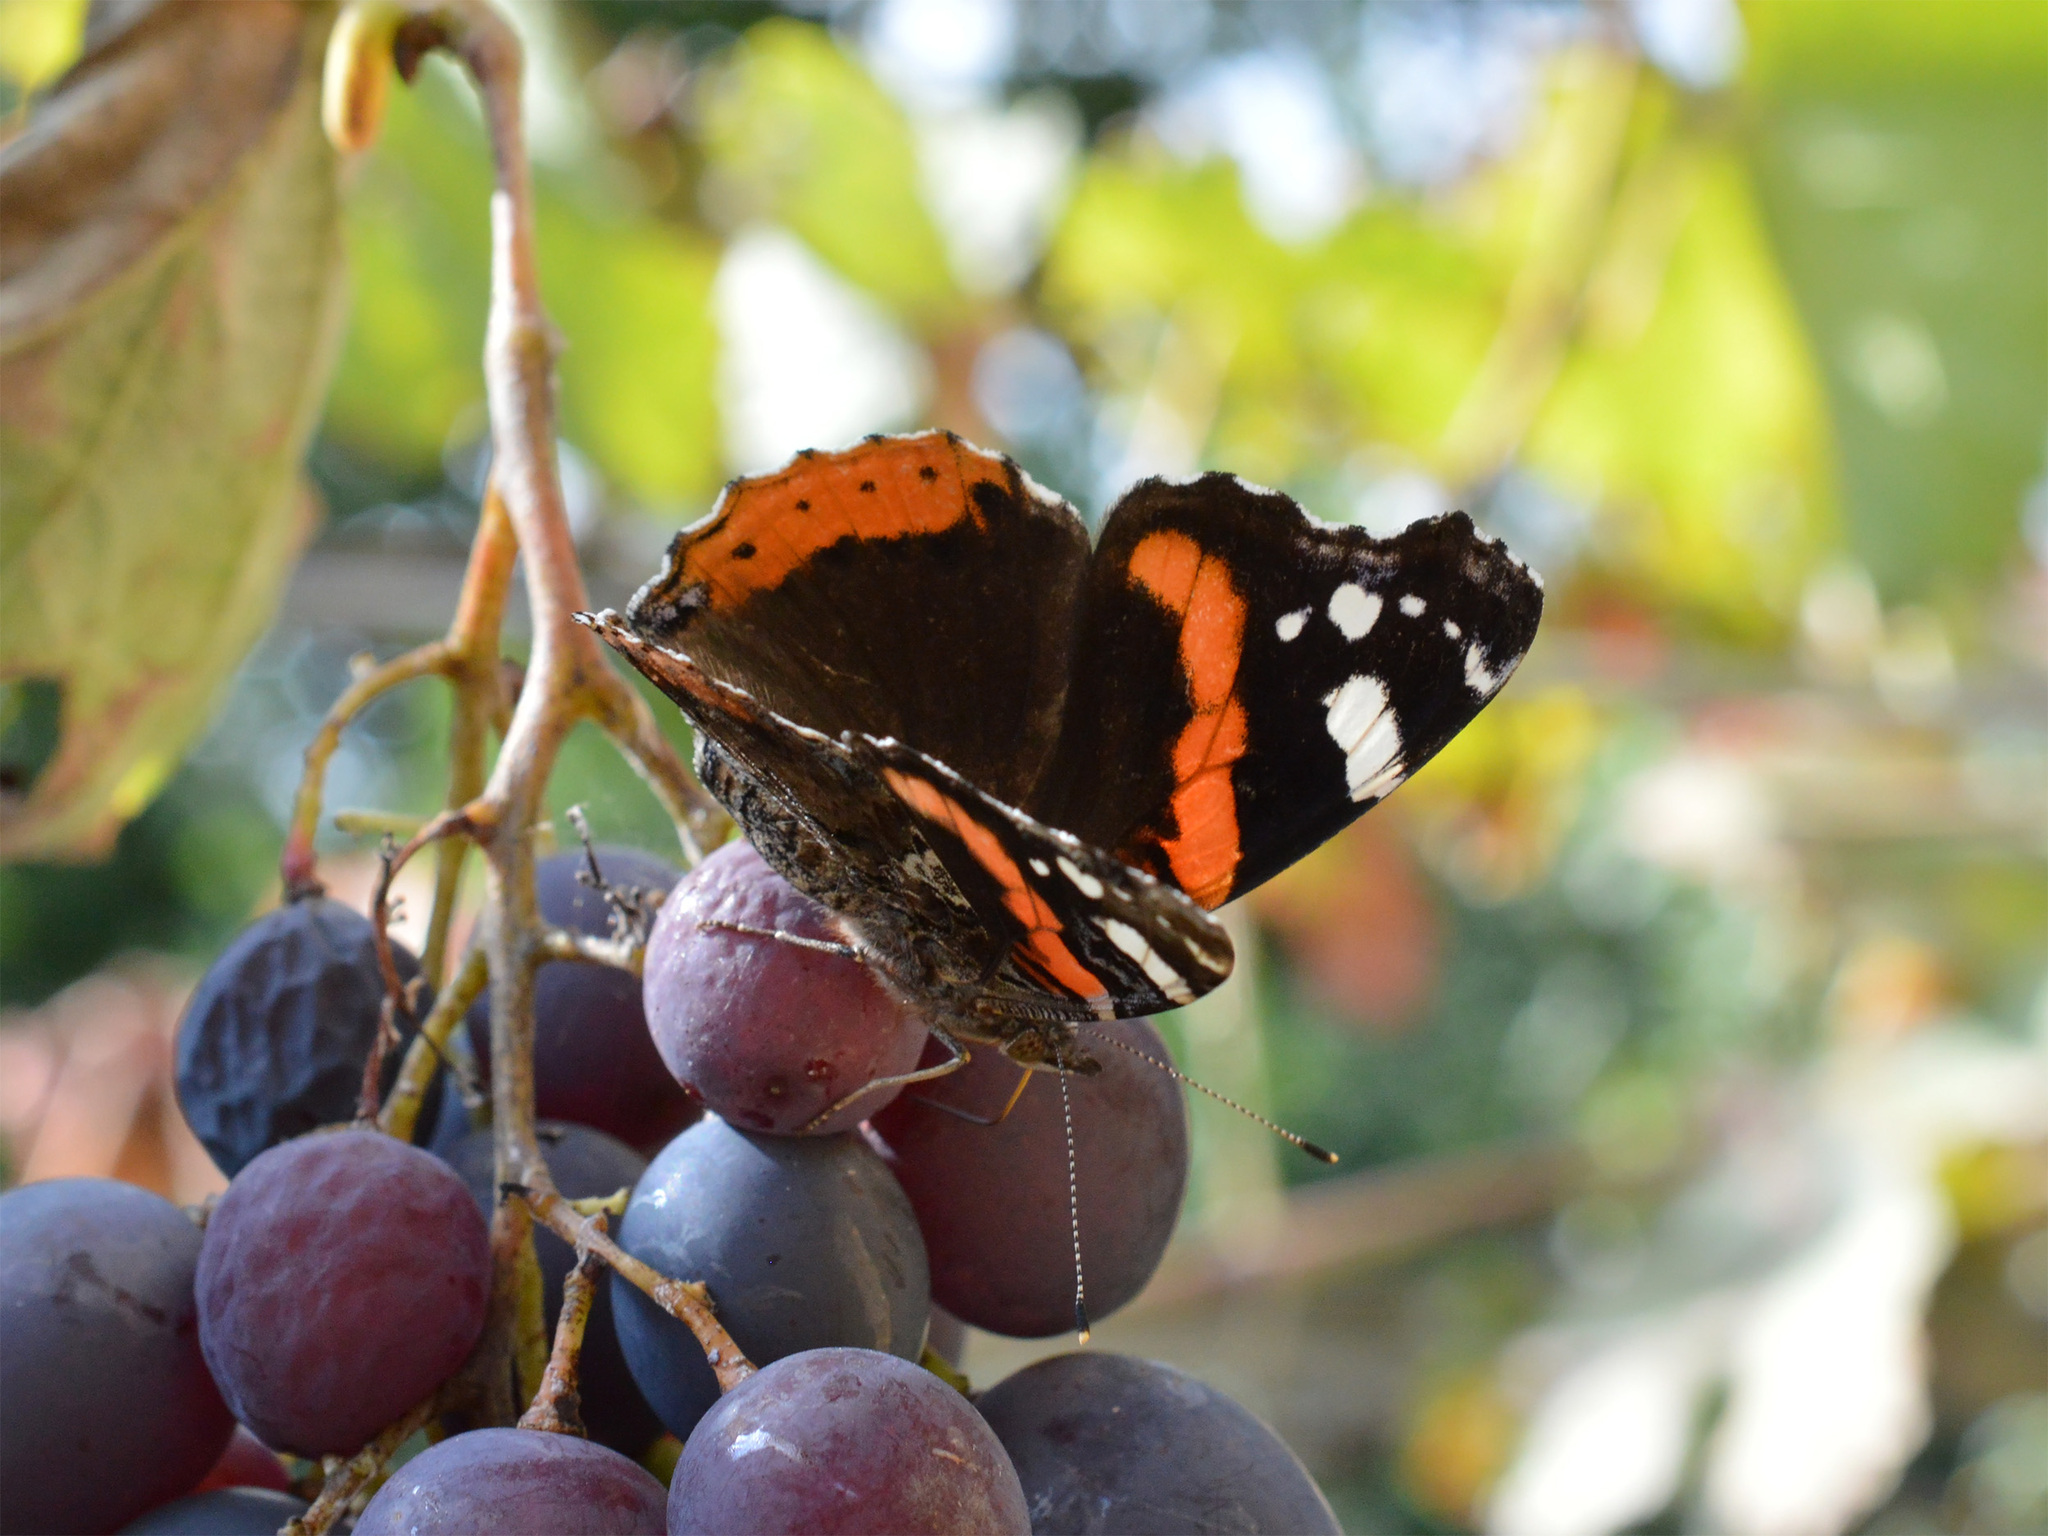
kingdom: Animalia
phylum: Arthropoda
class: Insecta
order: Lepidoptera
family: Nymphalidae
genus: Vanessa
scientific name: Vanessa atalanta
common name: Red admiral
